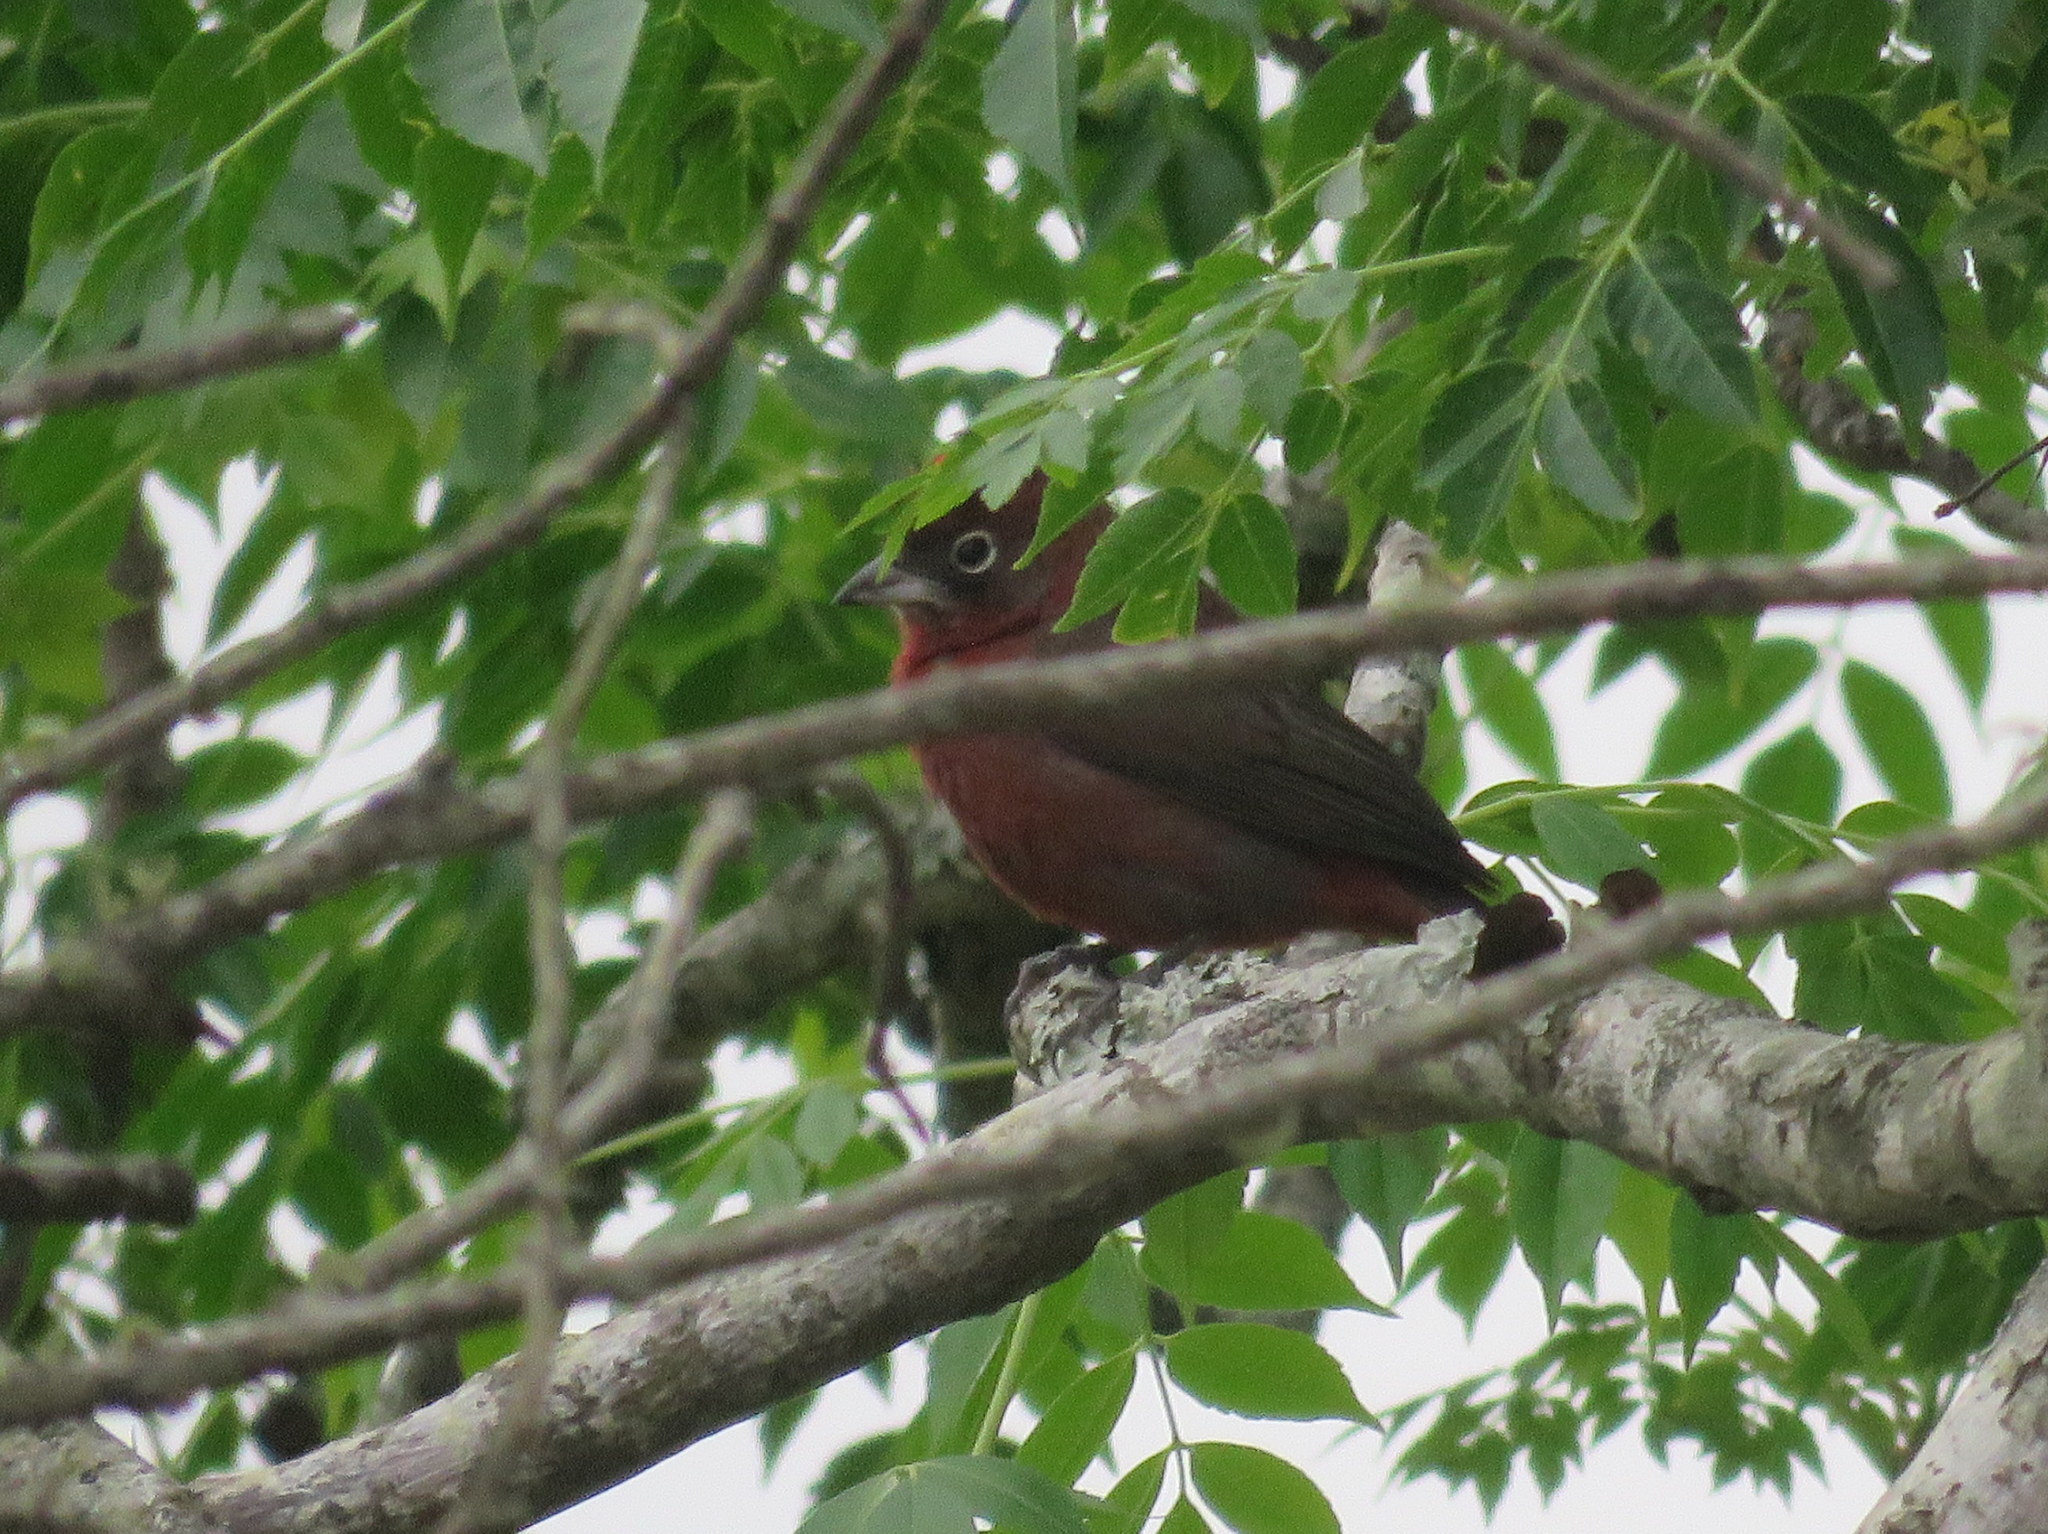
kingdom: Animalia
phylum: Chordata
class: Aves
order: Passeriformes
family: Thraupidae
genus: Coryphospingus
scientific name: Coryphospingus cucullatus
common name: Red pileated finch
